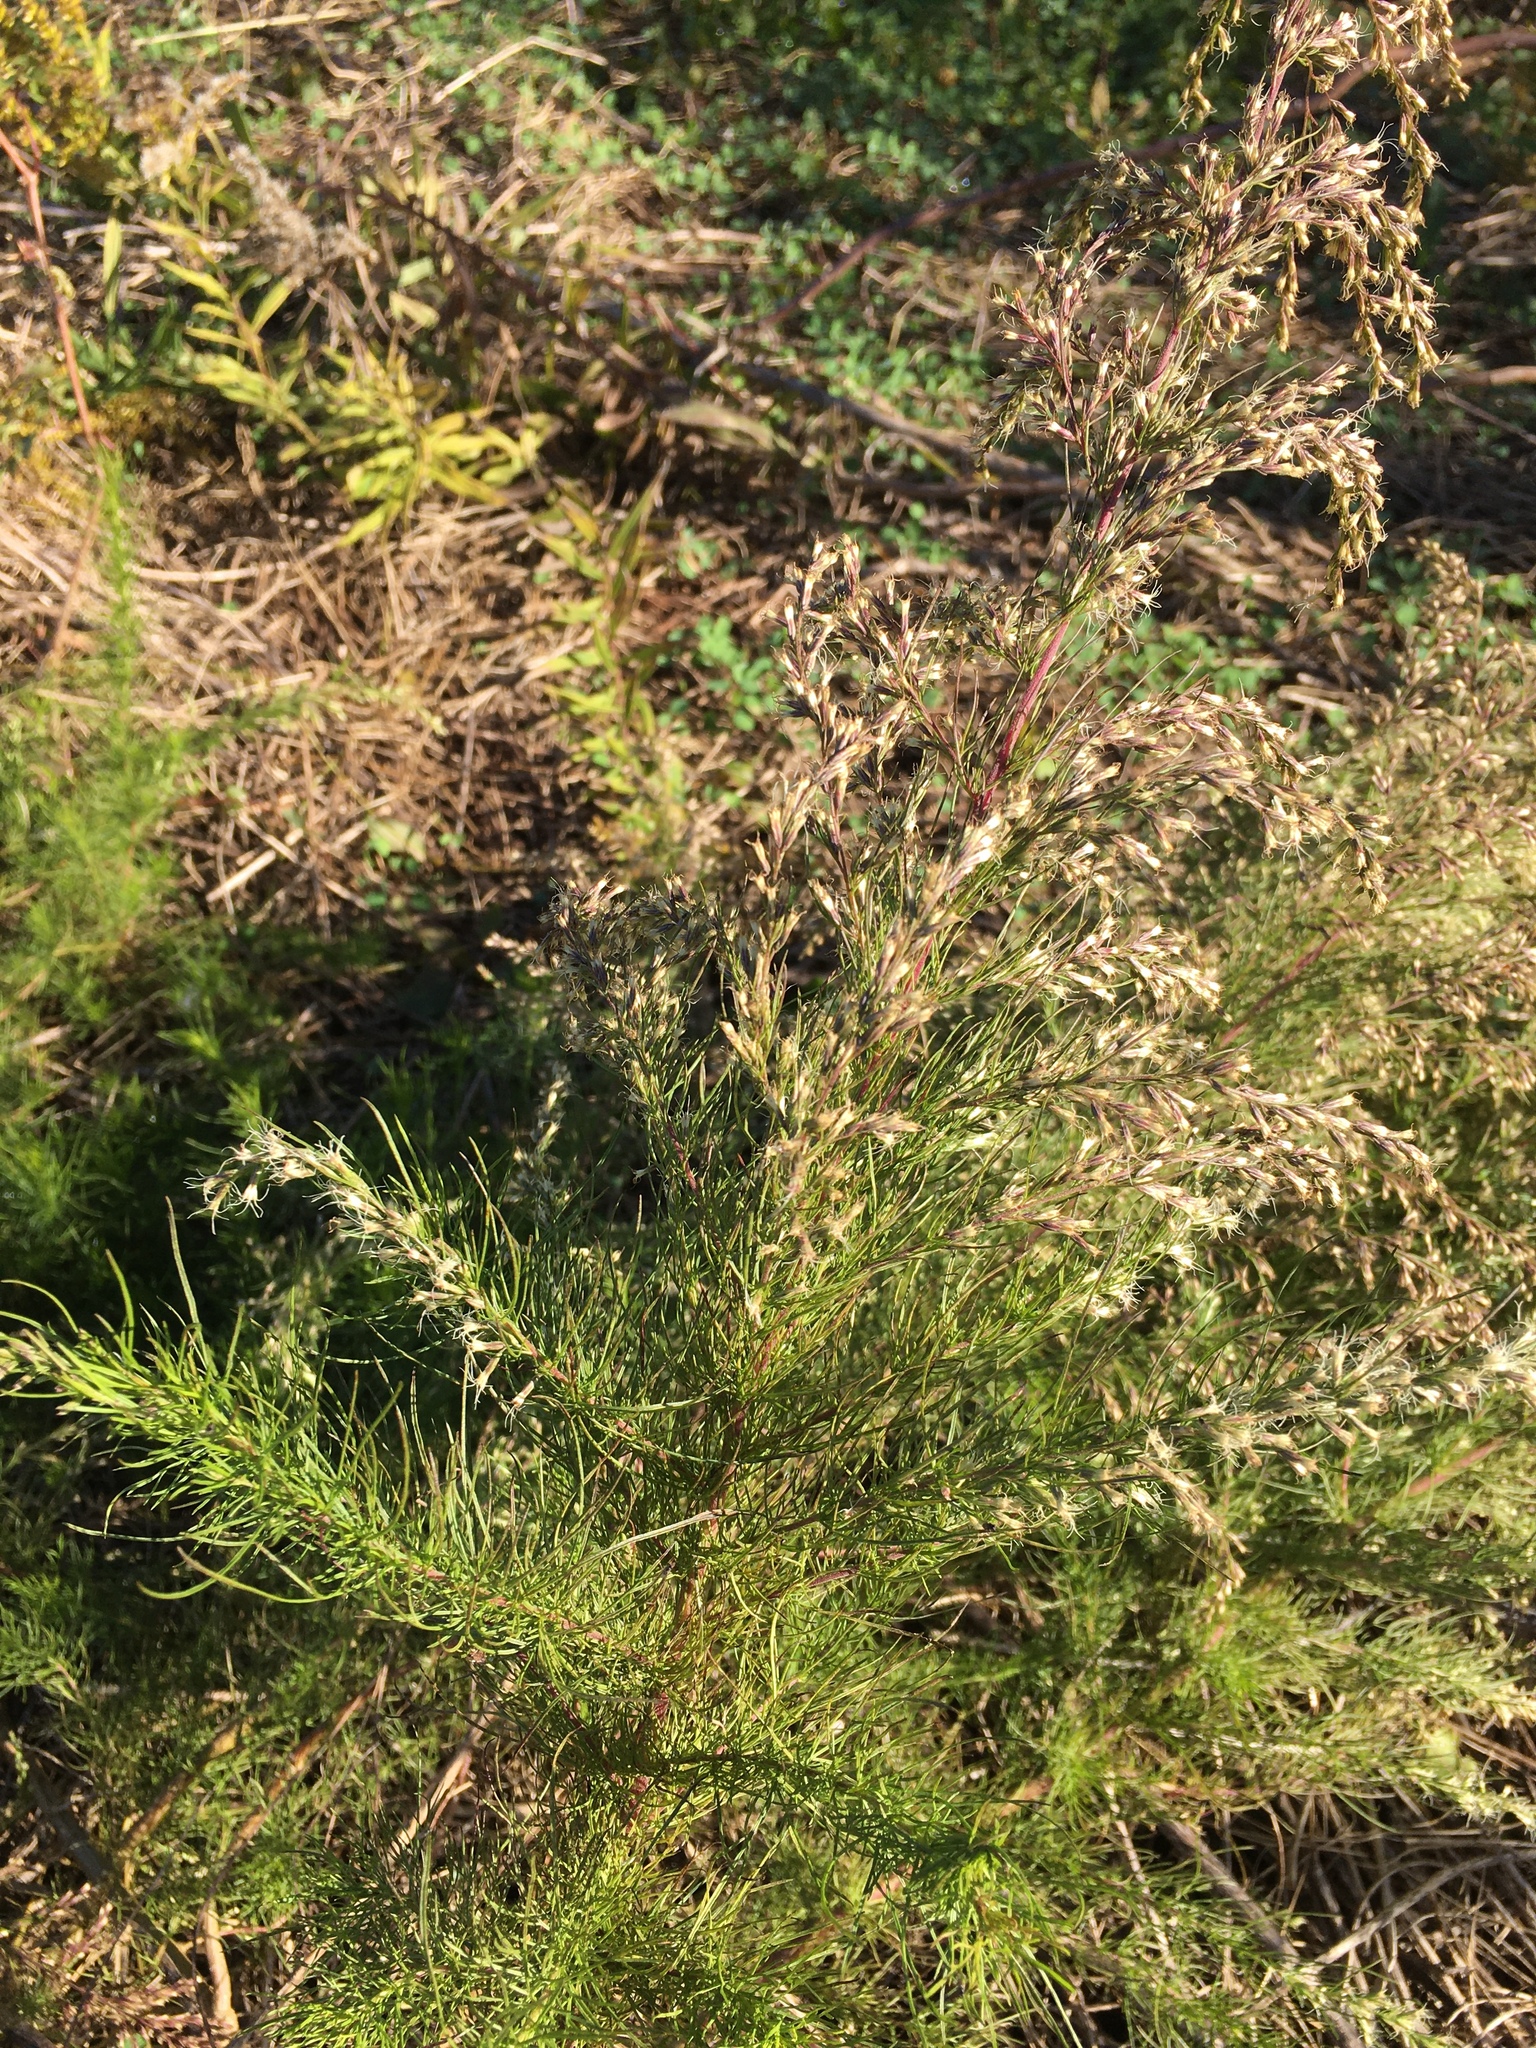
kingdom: Plantae
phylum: Tracheophyta
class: Magnoliopsida
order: Asterales
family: Asteraceae
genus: Eupatorium
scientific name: Eupatorium capillifolium
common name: Dog-fennel
